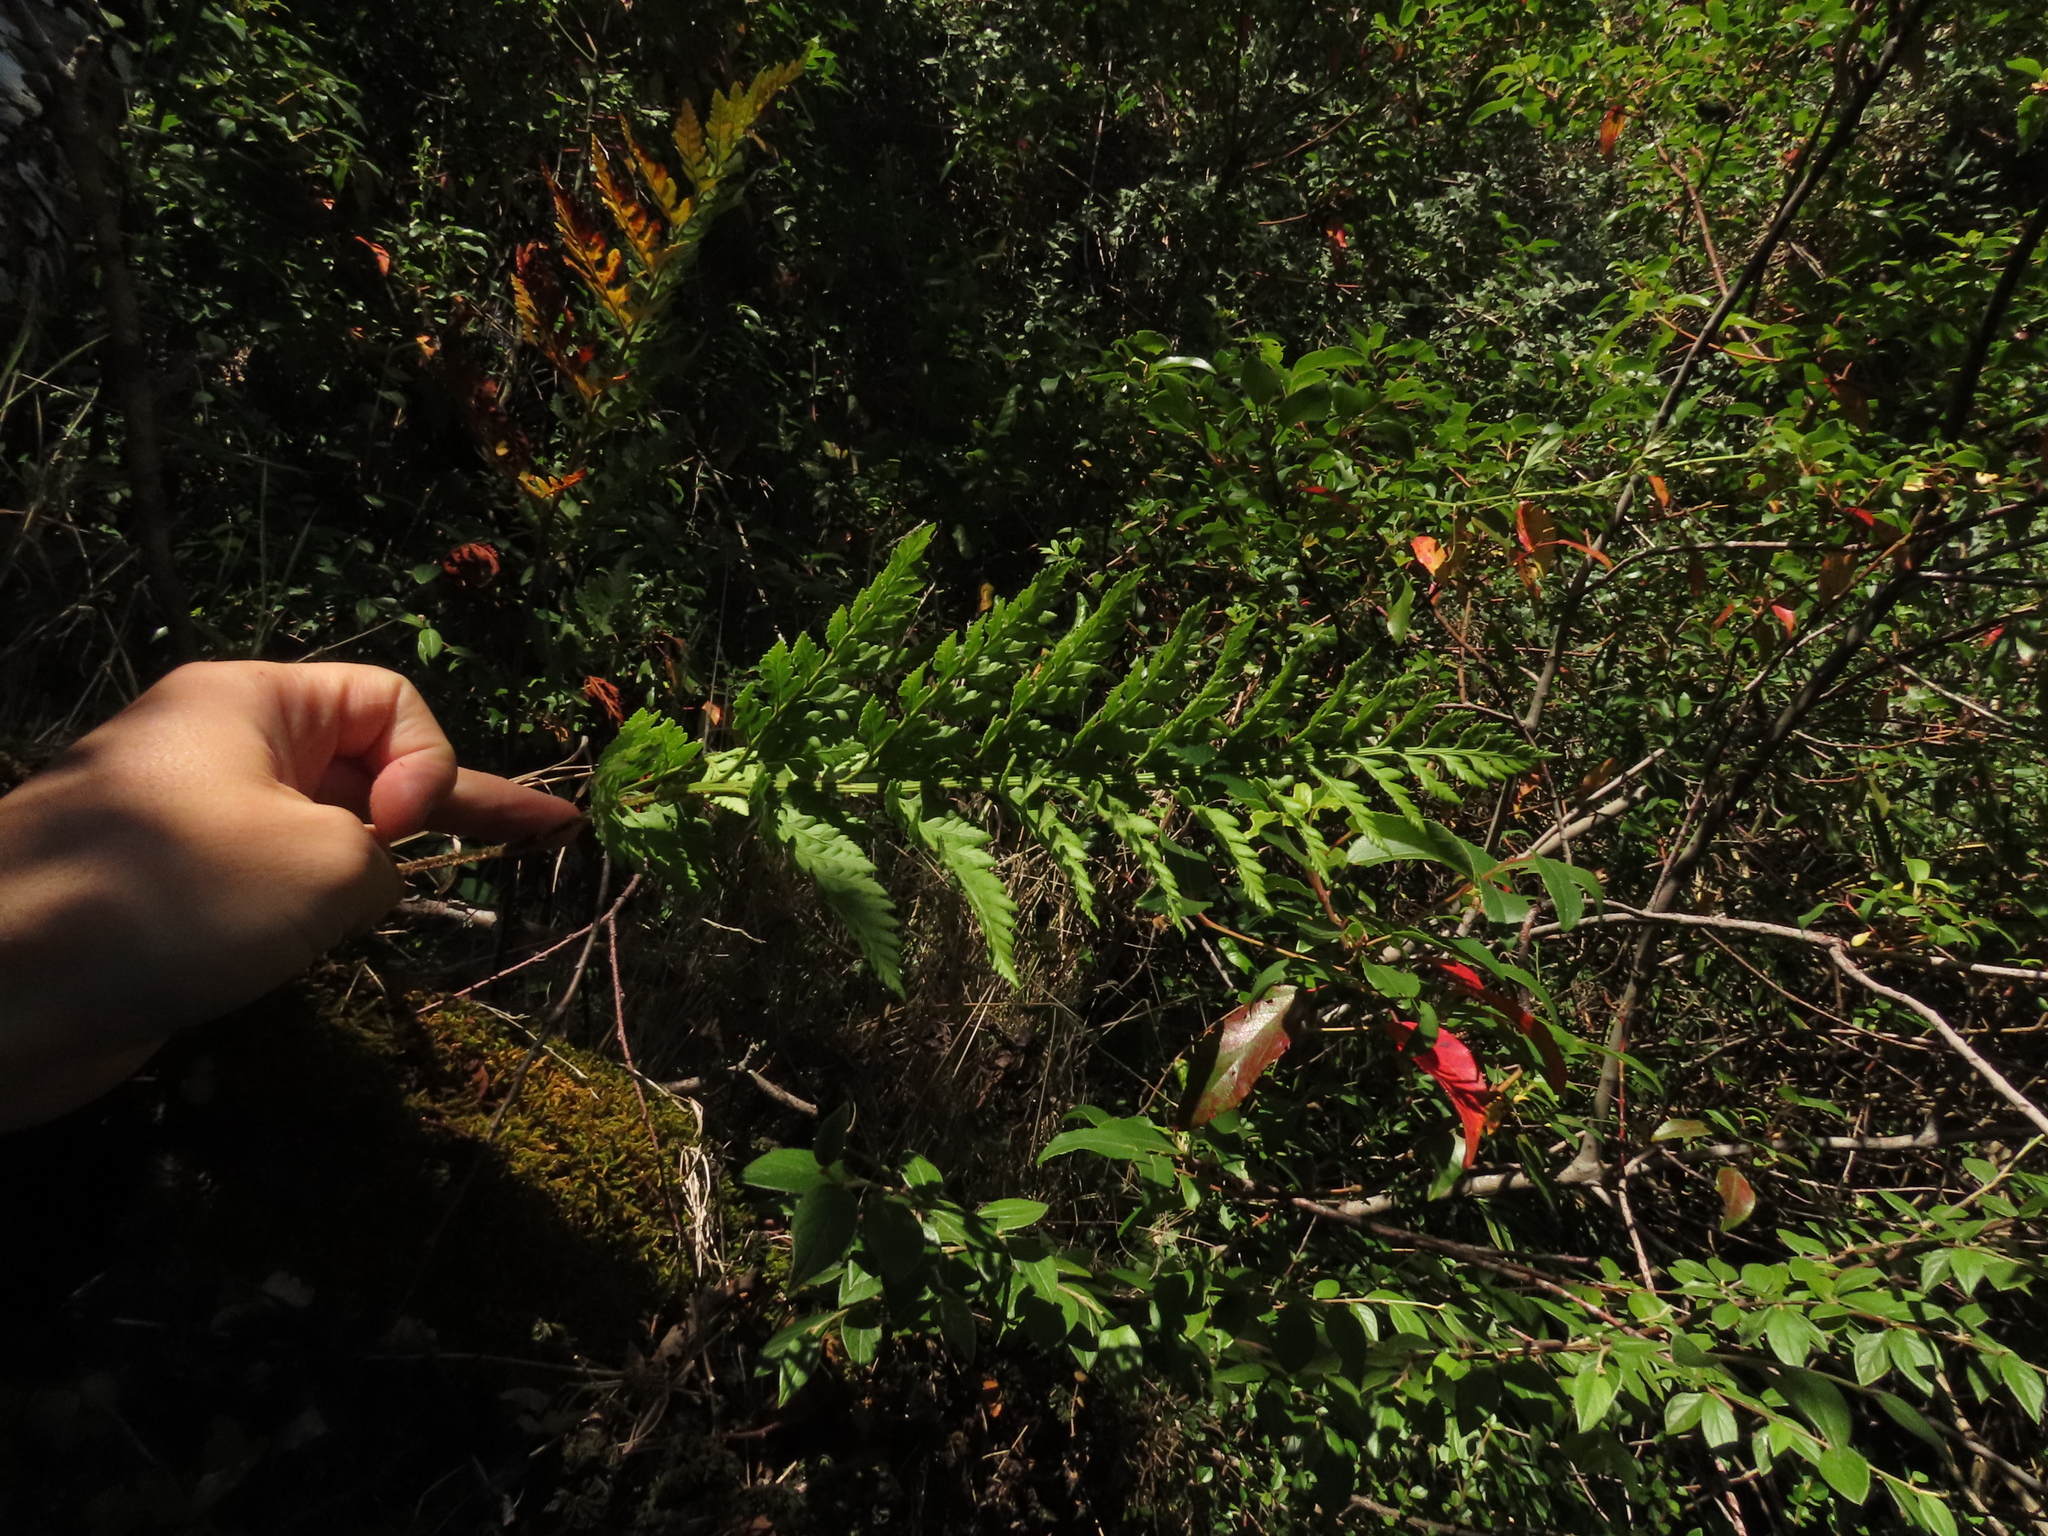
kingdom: Plantae
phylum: Tracheophyta
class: Polypodiopsida
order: Polypodiales
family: Dryopteridaceae
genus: Rumohra
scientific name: Rumohra adiantiformis
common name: Leather fern
